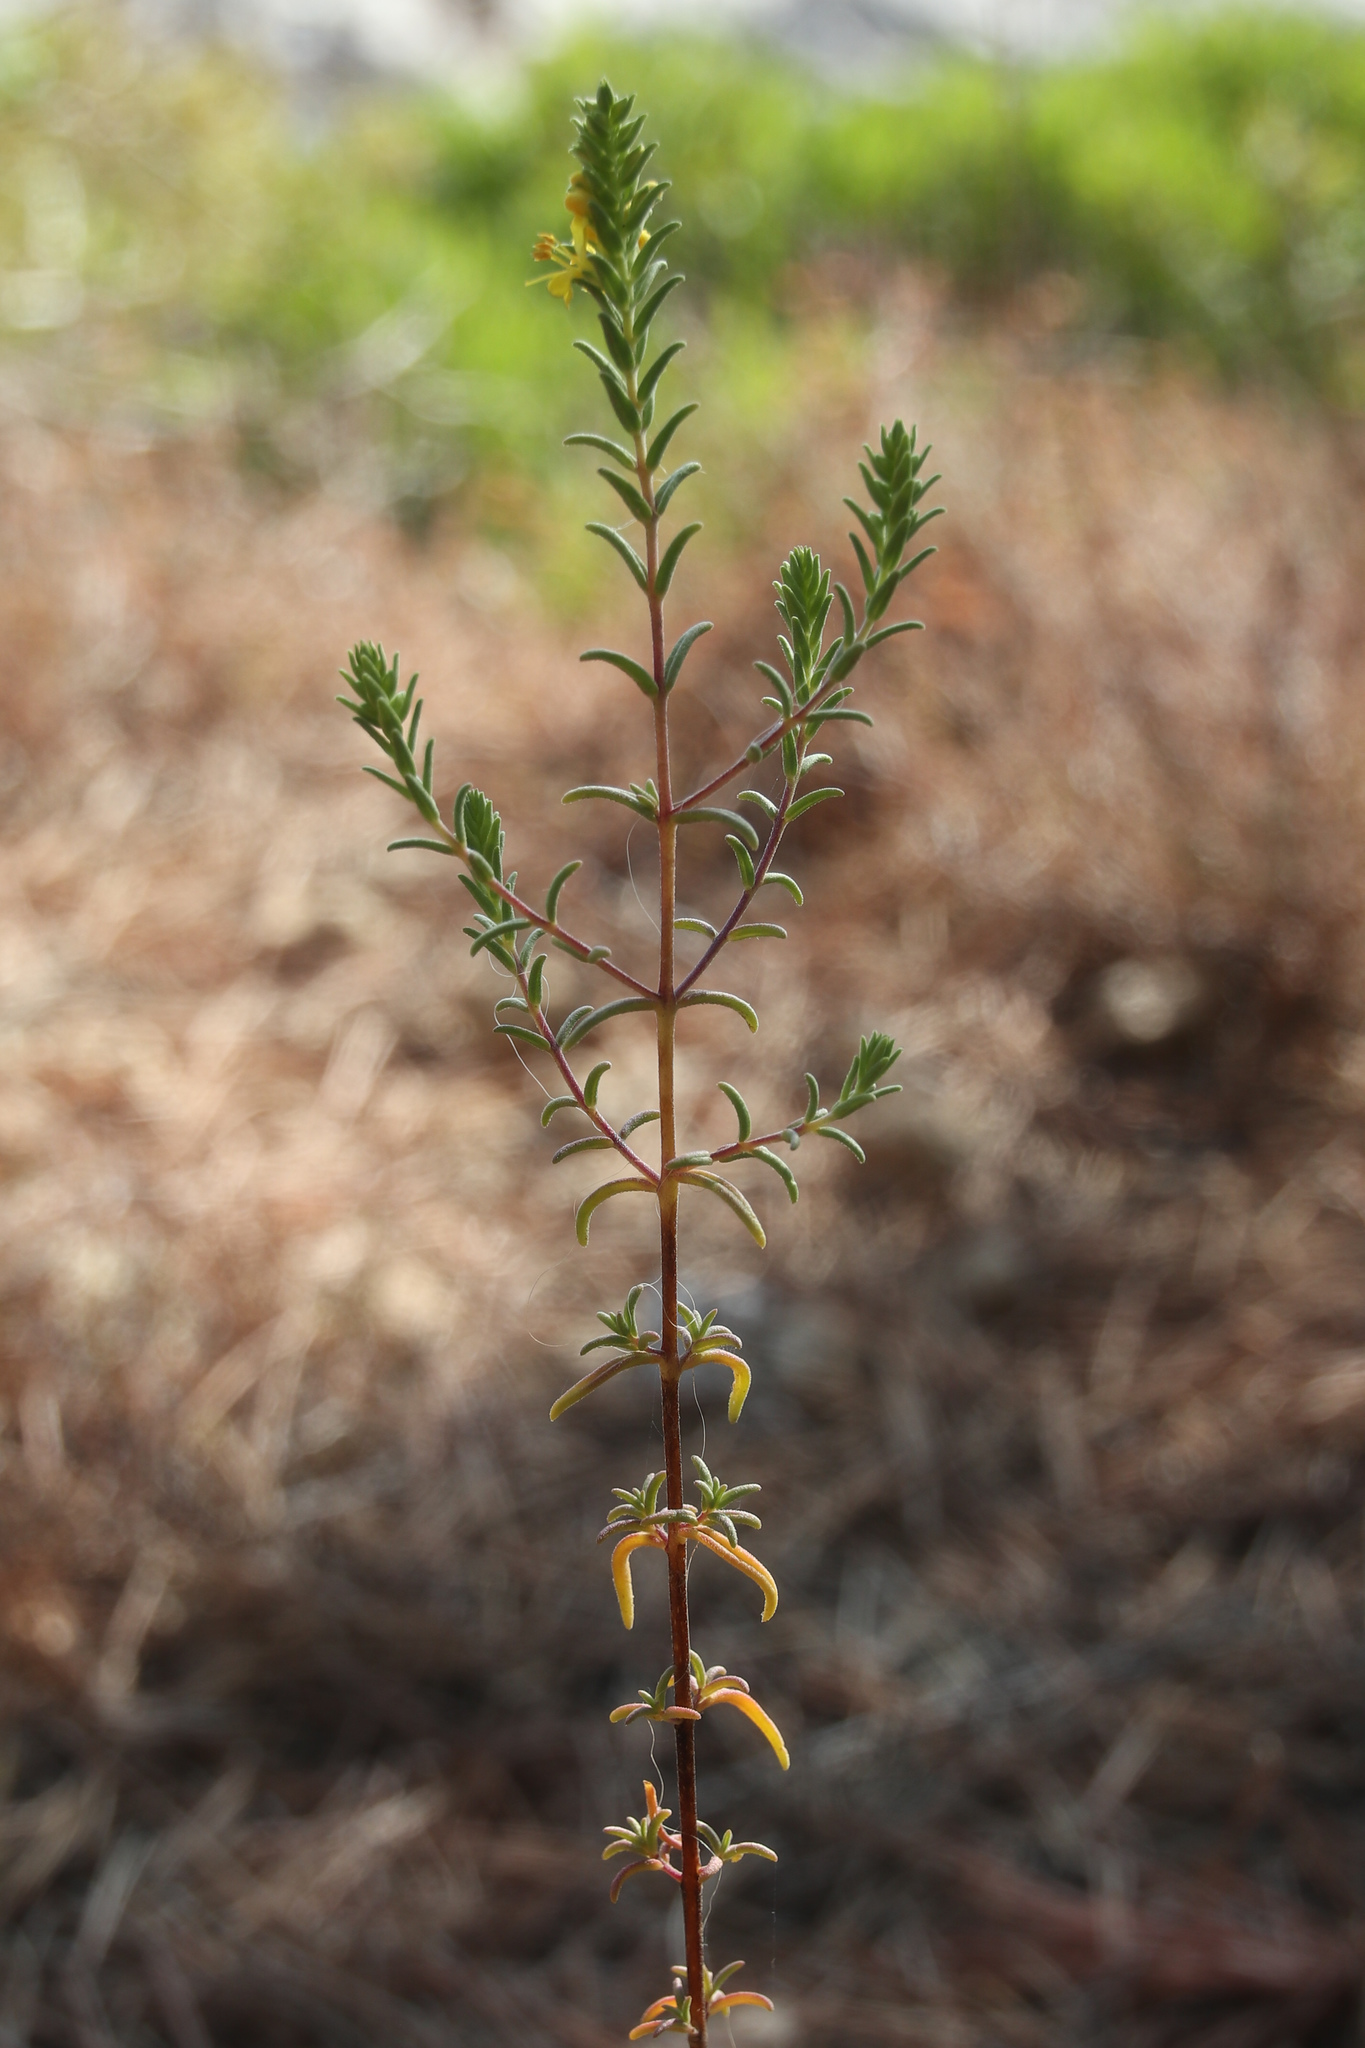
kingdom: Plantae
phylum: Tracheophyta
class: Magnoliopsida
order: Lamiales
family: Orobanchaceae
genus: Odontites
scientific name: Odontites luteus
